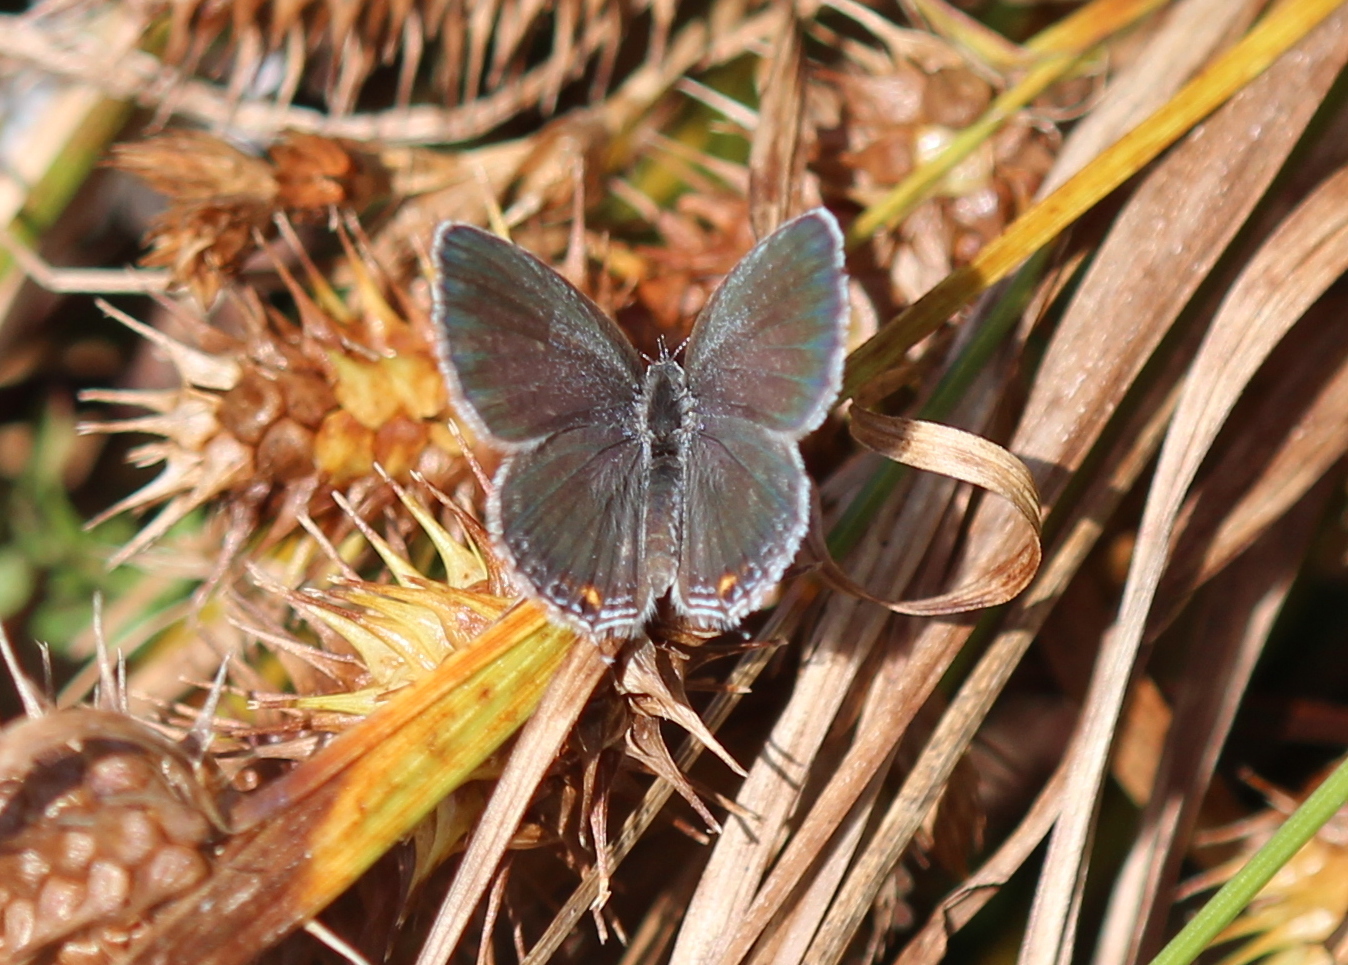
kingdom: Animalia
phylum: Arthropoda
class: Insecta
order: Lepidoptera
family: Lycaenidae
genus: Elkalyce
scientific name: Elkalyce comyntas
